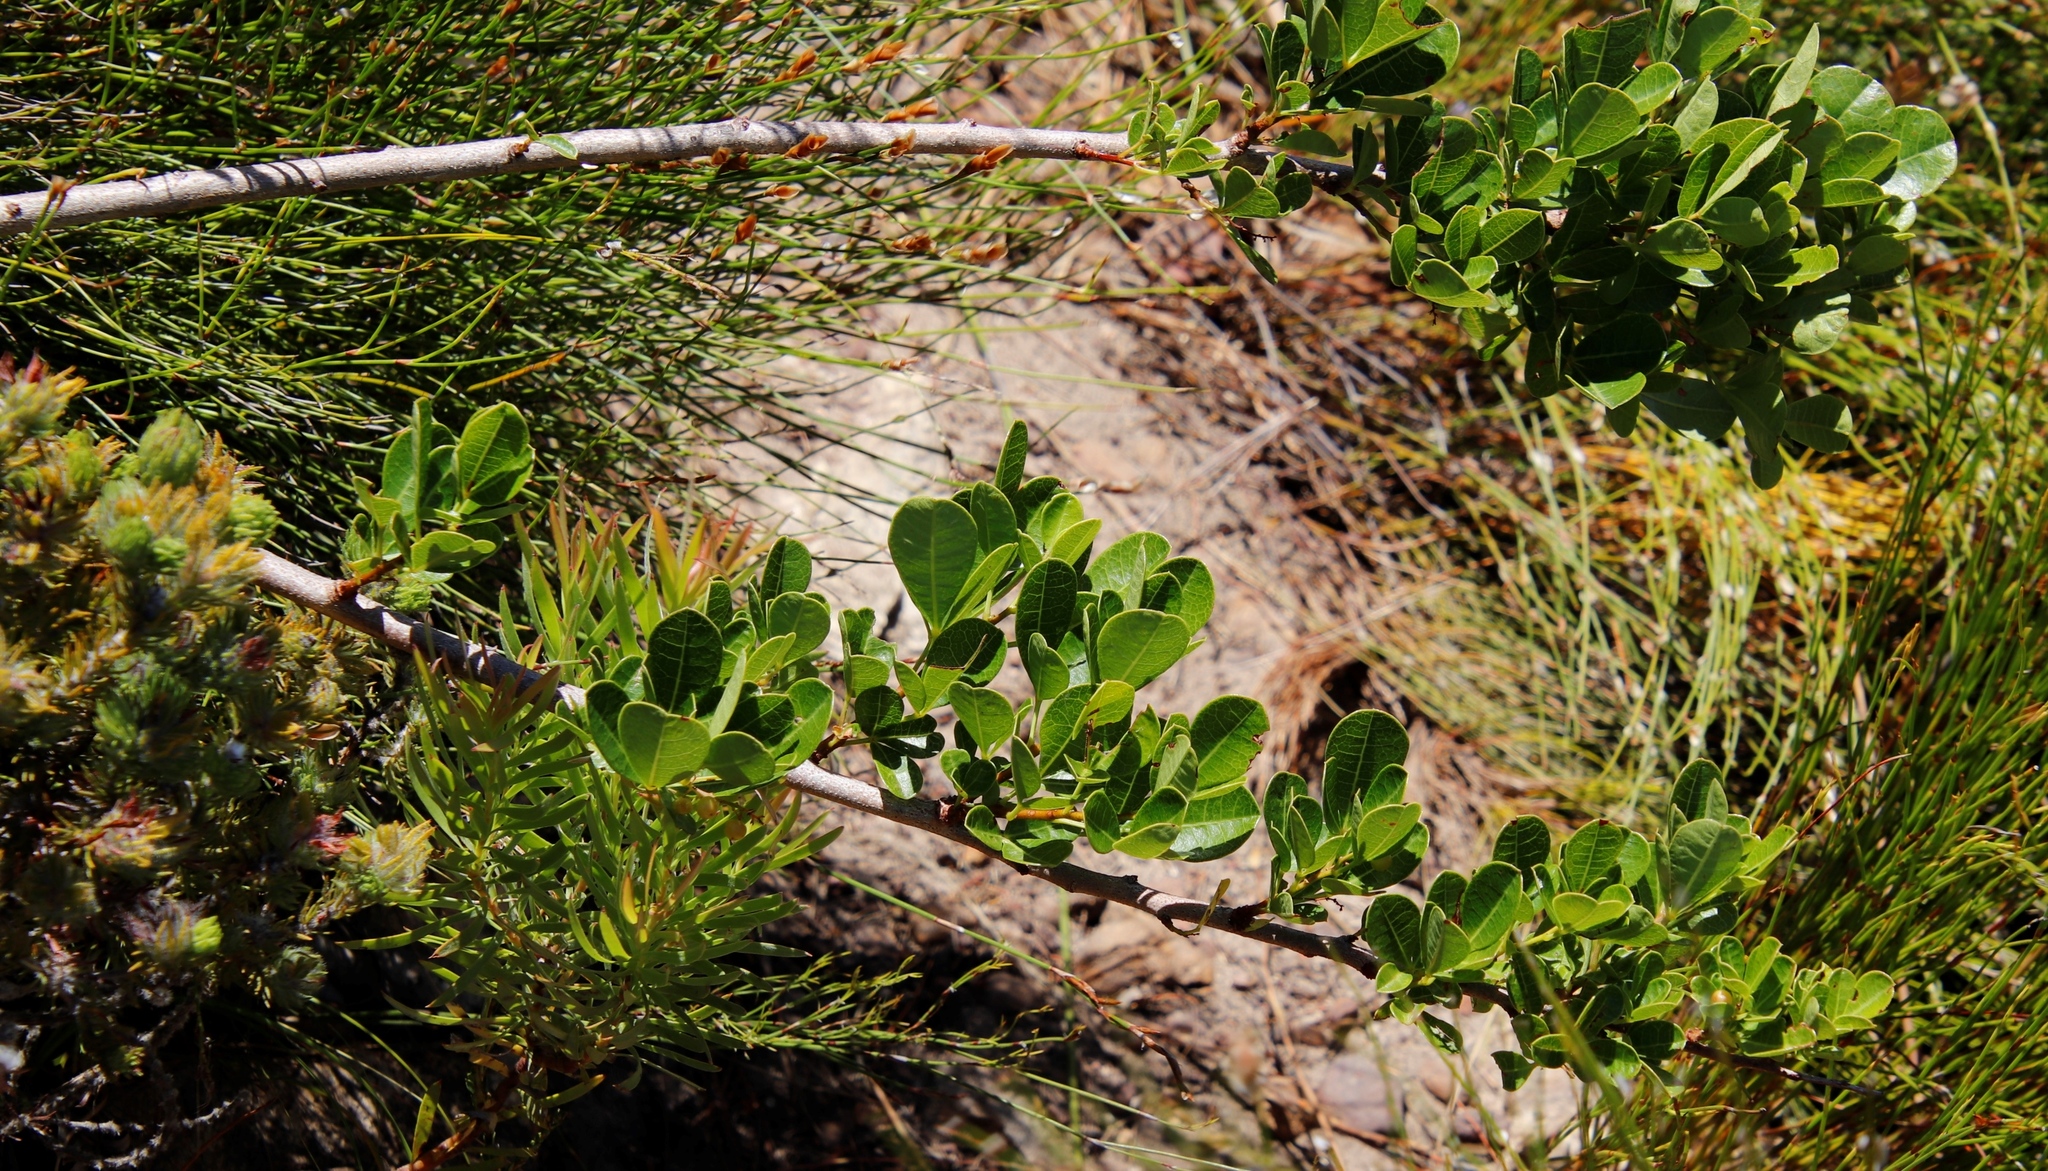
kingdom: Plantae
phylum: Tracheophyta
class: Magnoliopsida
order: Sapindales
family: Anacardiaceae
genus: Searsia
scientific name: Searsia laevigata
